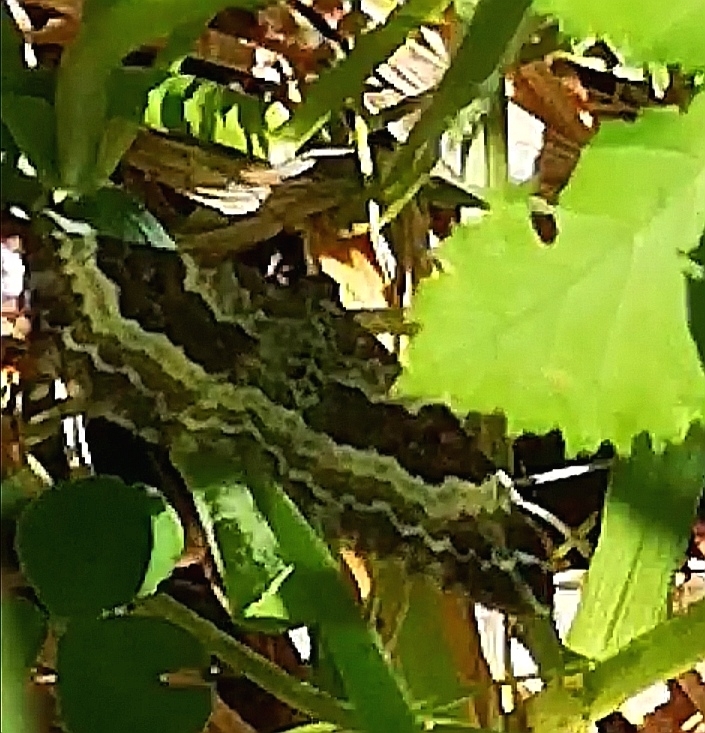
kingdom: Animalia
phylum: Arthropoda
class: Insecta
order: Lepidoptera
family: Geometridae
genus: Epirrhoe
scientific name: Epirrhoe alternata
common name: Common carpet
